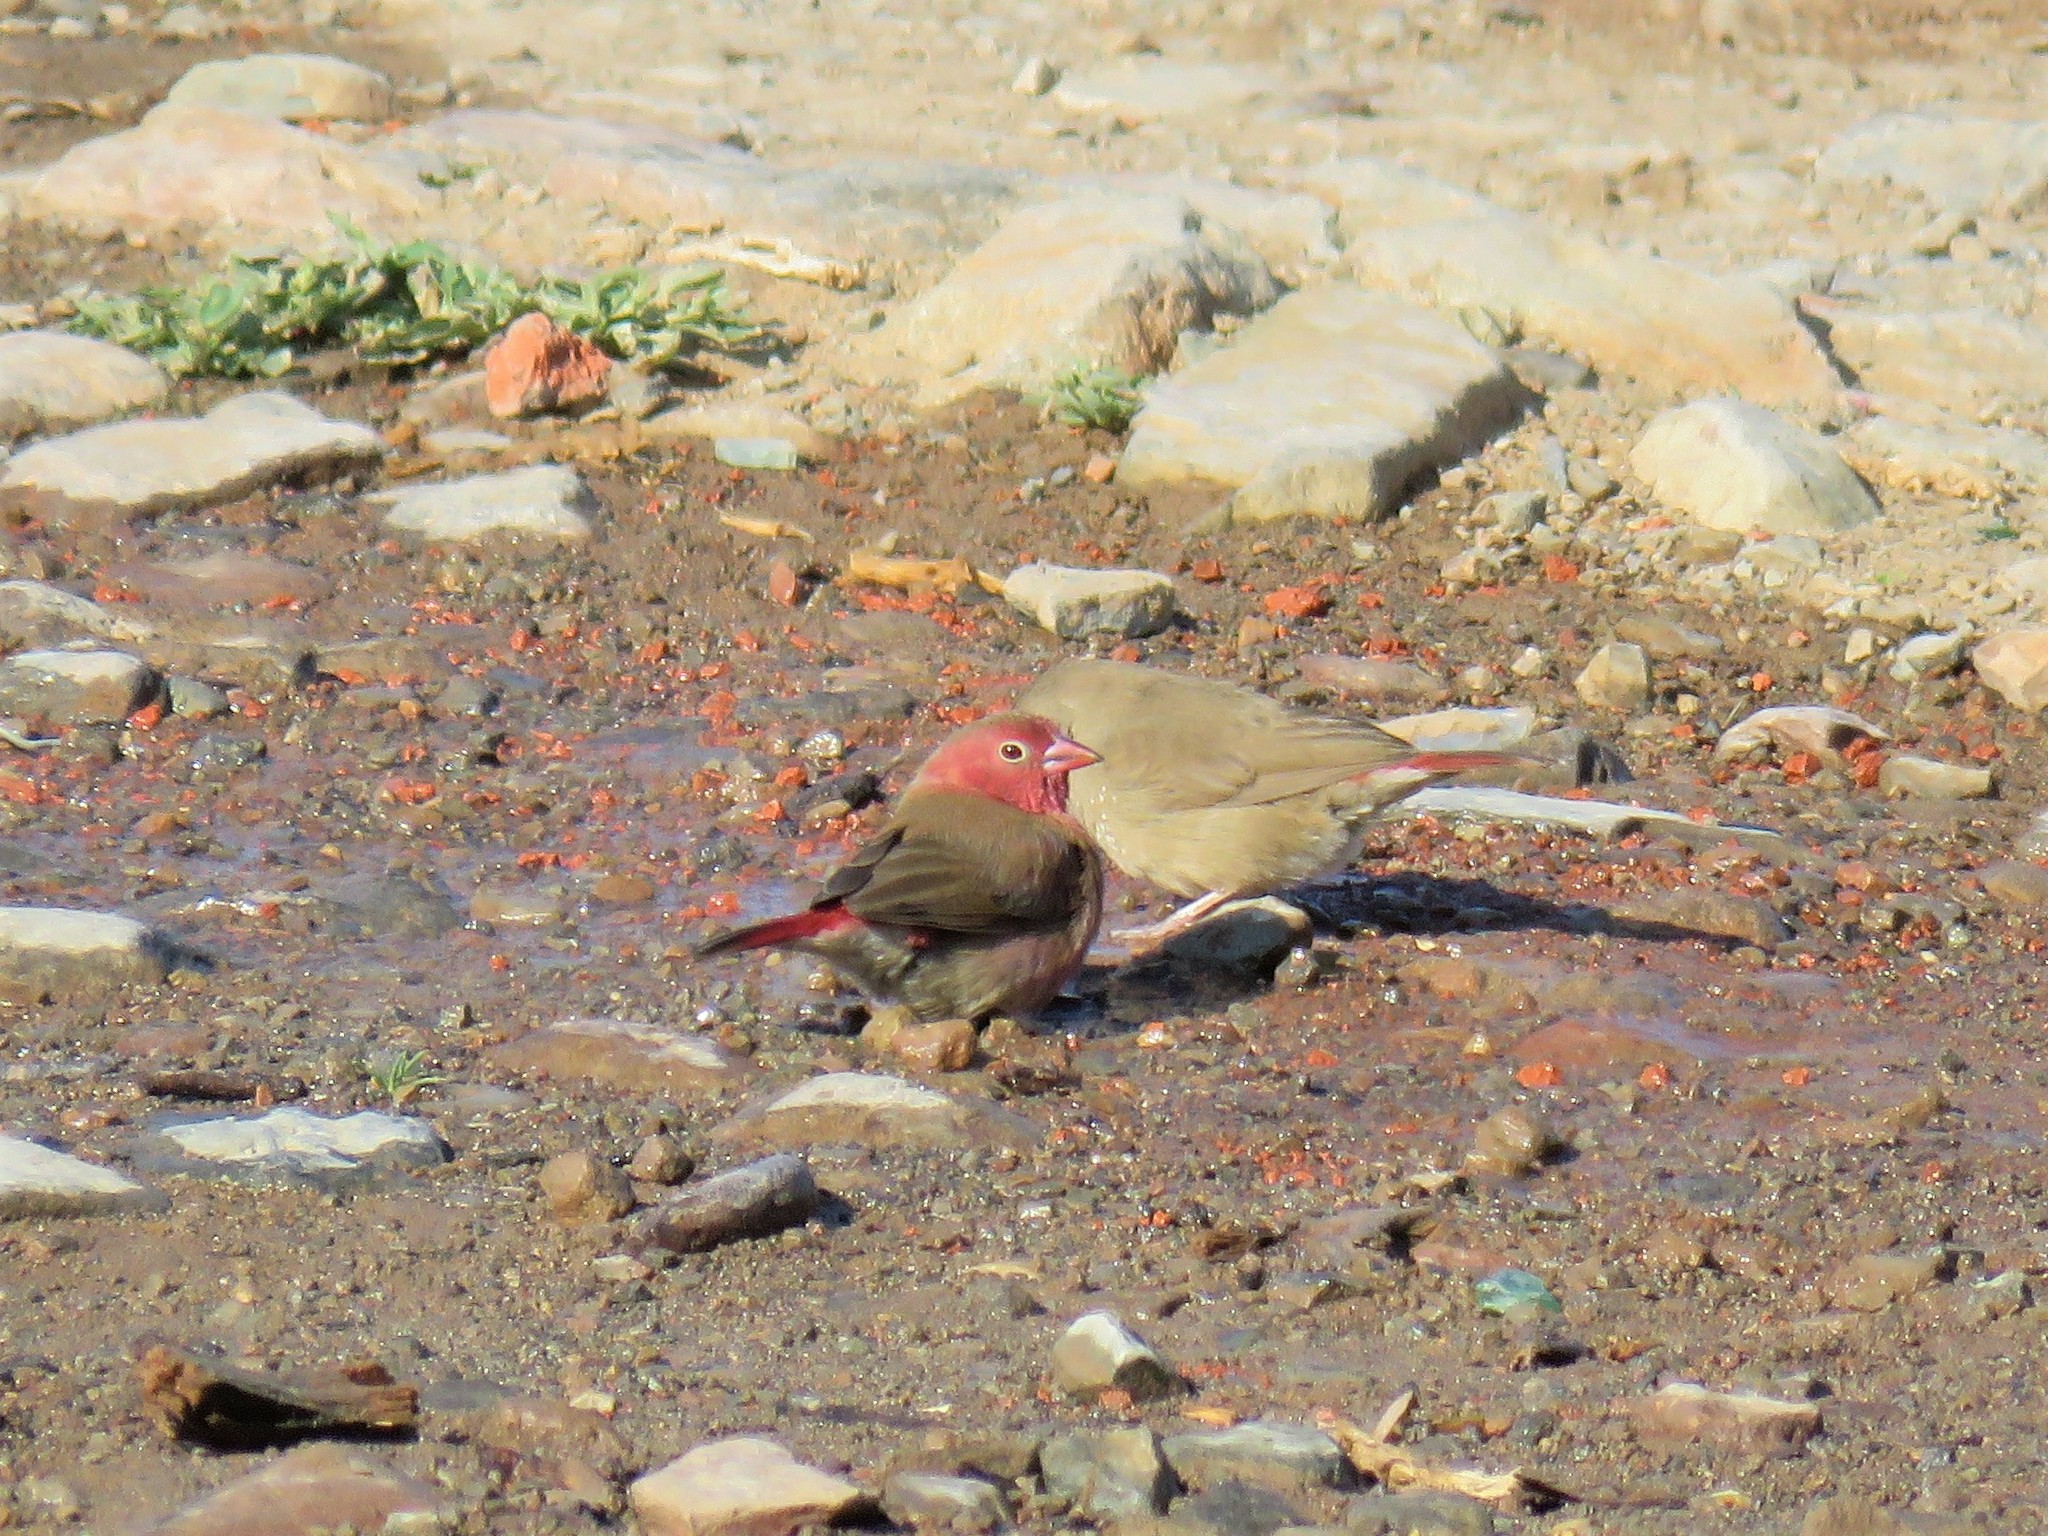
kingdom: Animalia
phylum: Chordata
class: Aves
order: Passeriformes
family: Estrildidae
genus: Lagonosticta
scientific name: Lagonosticta senegala
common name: Red-billed firefinch
